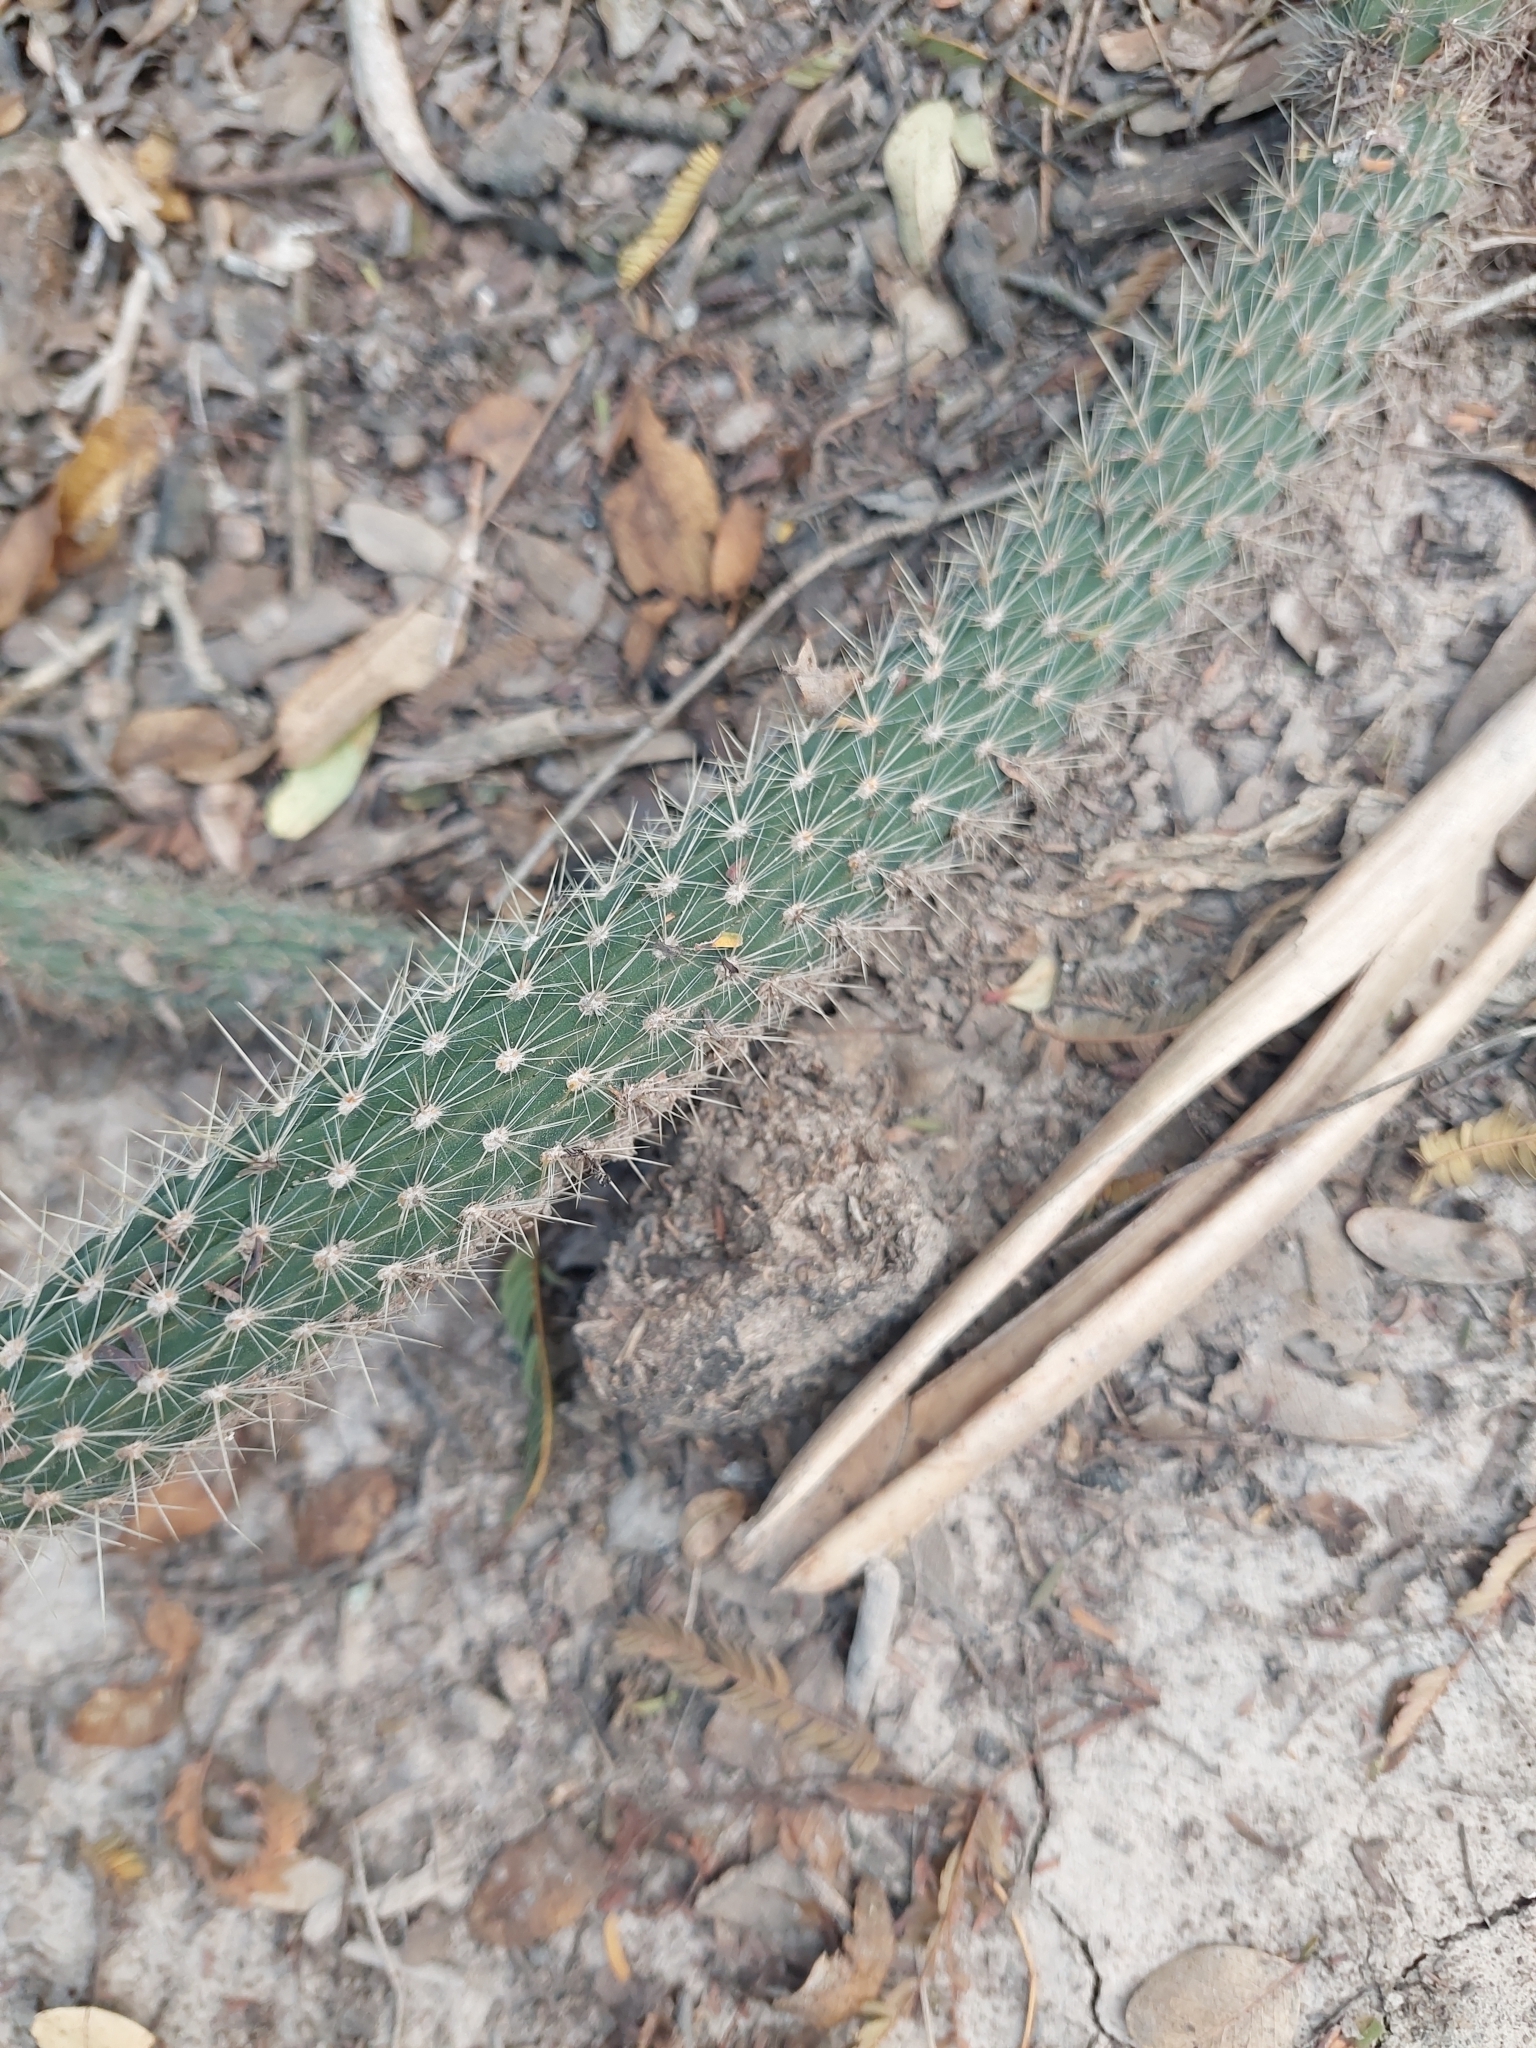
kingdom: Plantae
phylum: Tracheophyta
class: Magnoliopsida
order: Caryophyllales
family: Cactaceae
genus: Cleistocactus
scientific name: Cleistocactus baumannii
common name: Scarlet-bugler
